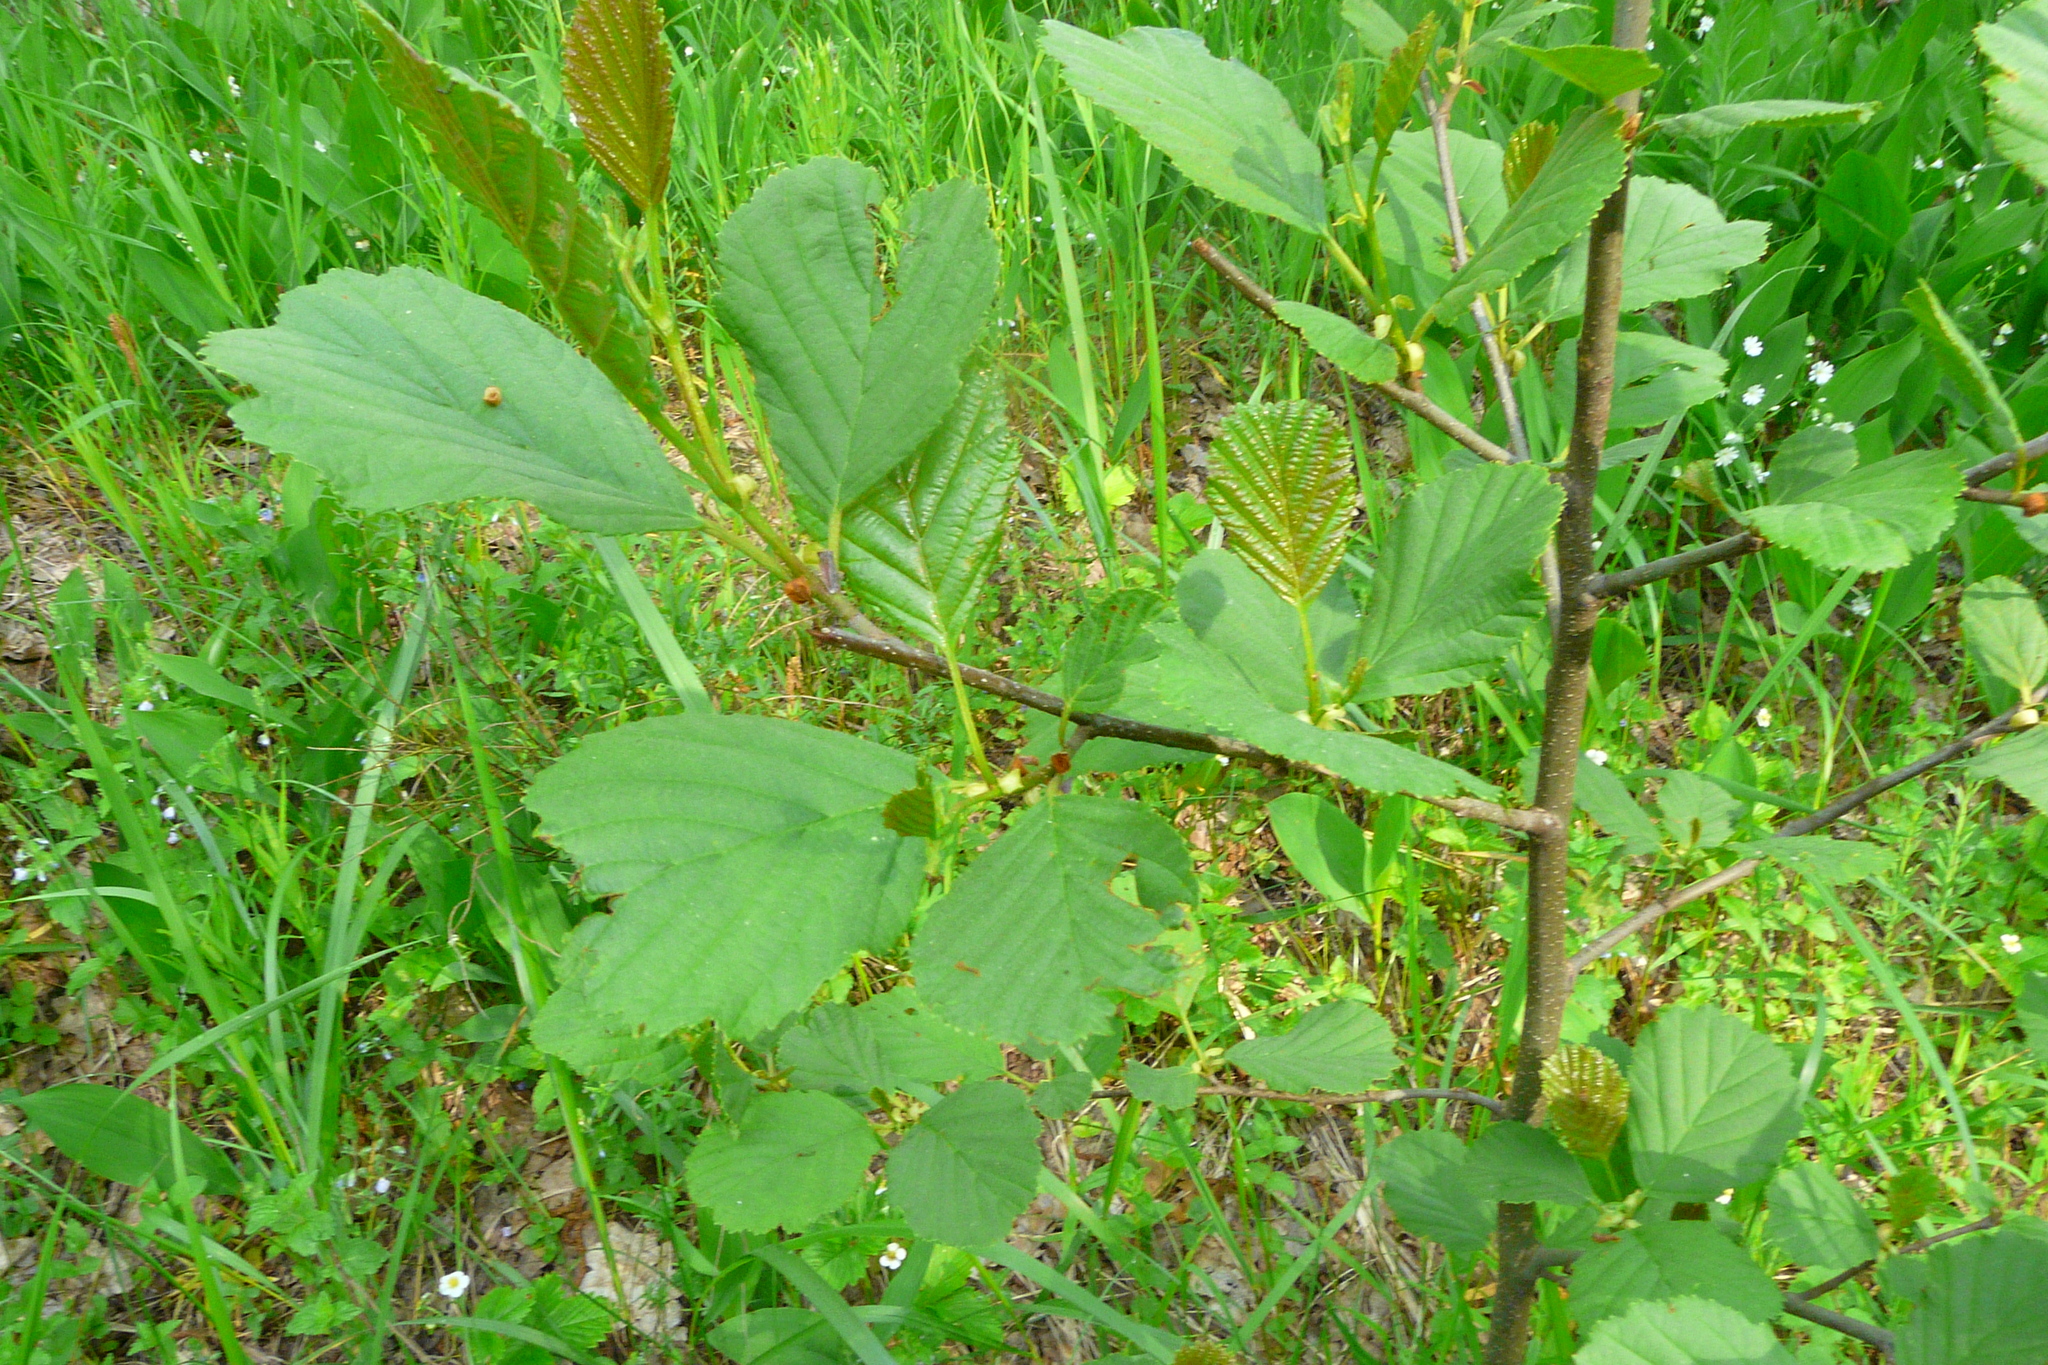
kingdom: Plantae
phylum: Tracheophyta
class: Magnoliopsida
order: Fagales
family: Betulaceae
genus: Alnus
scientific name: Alnus glutinosa
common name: Black alder
